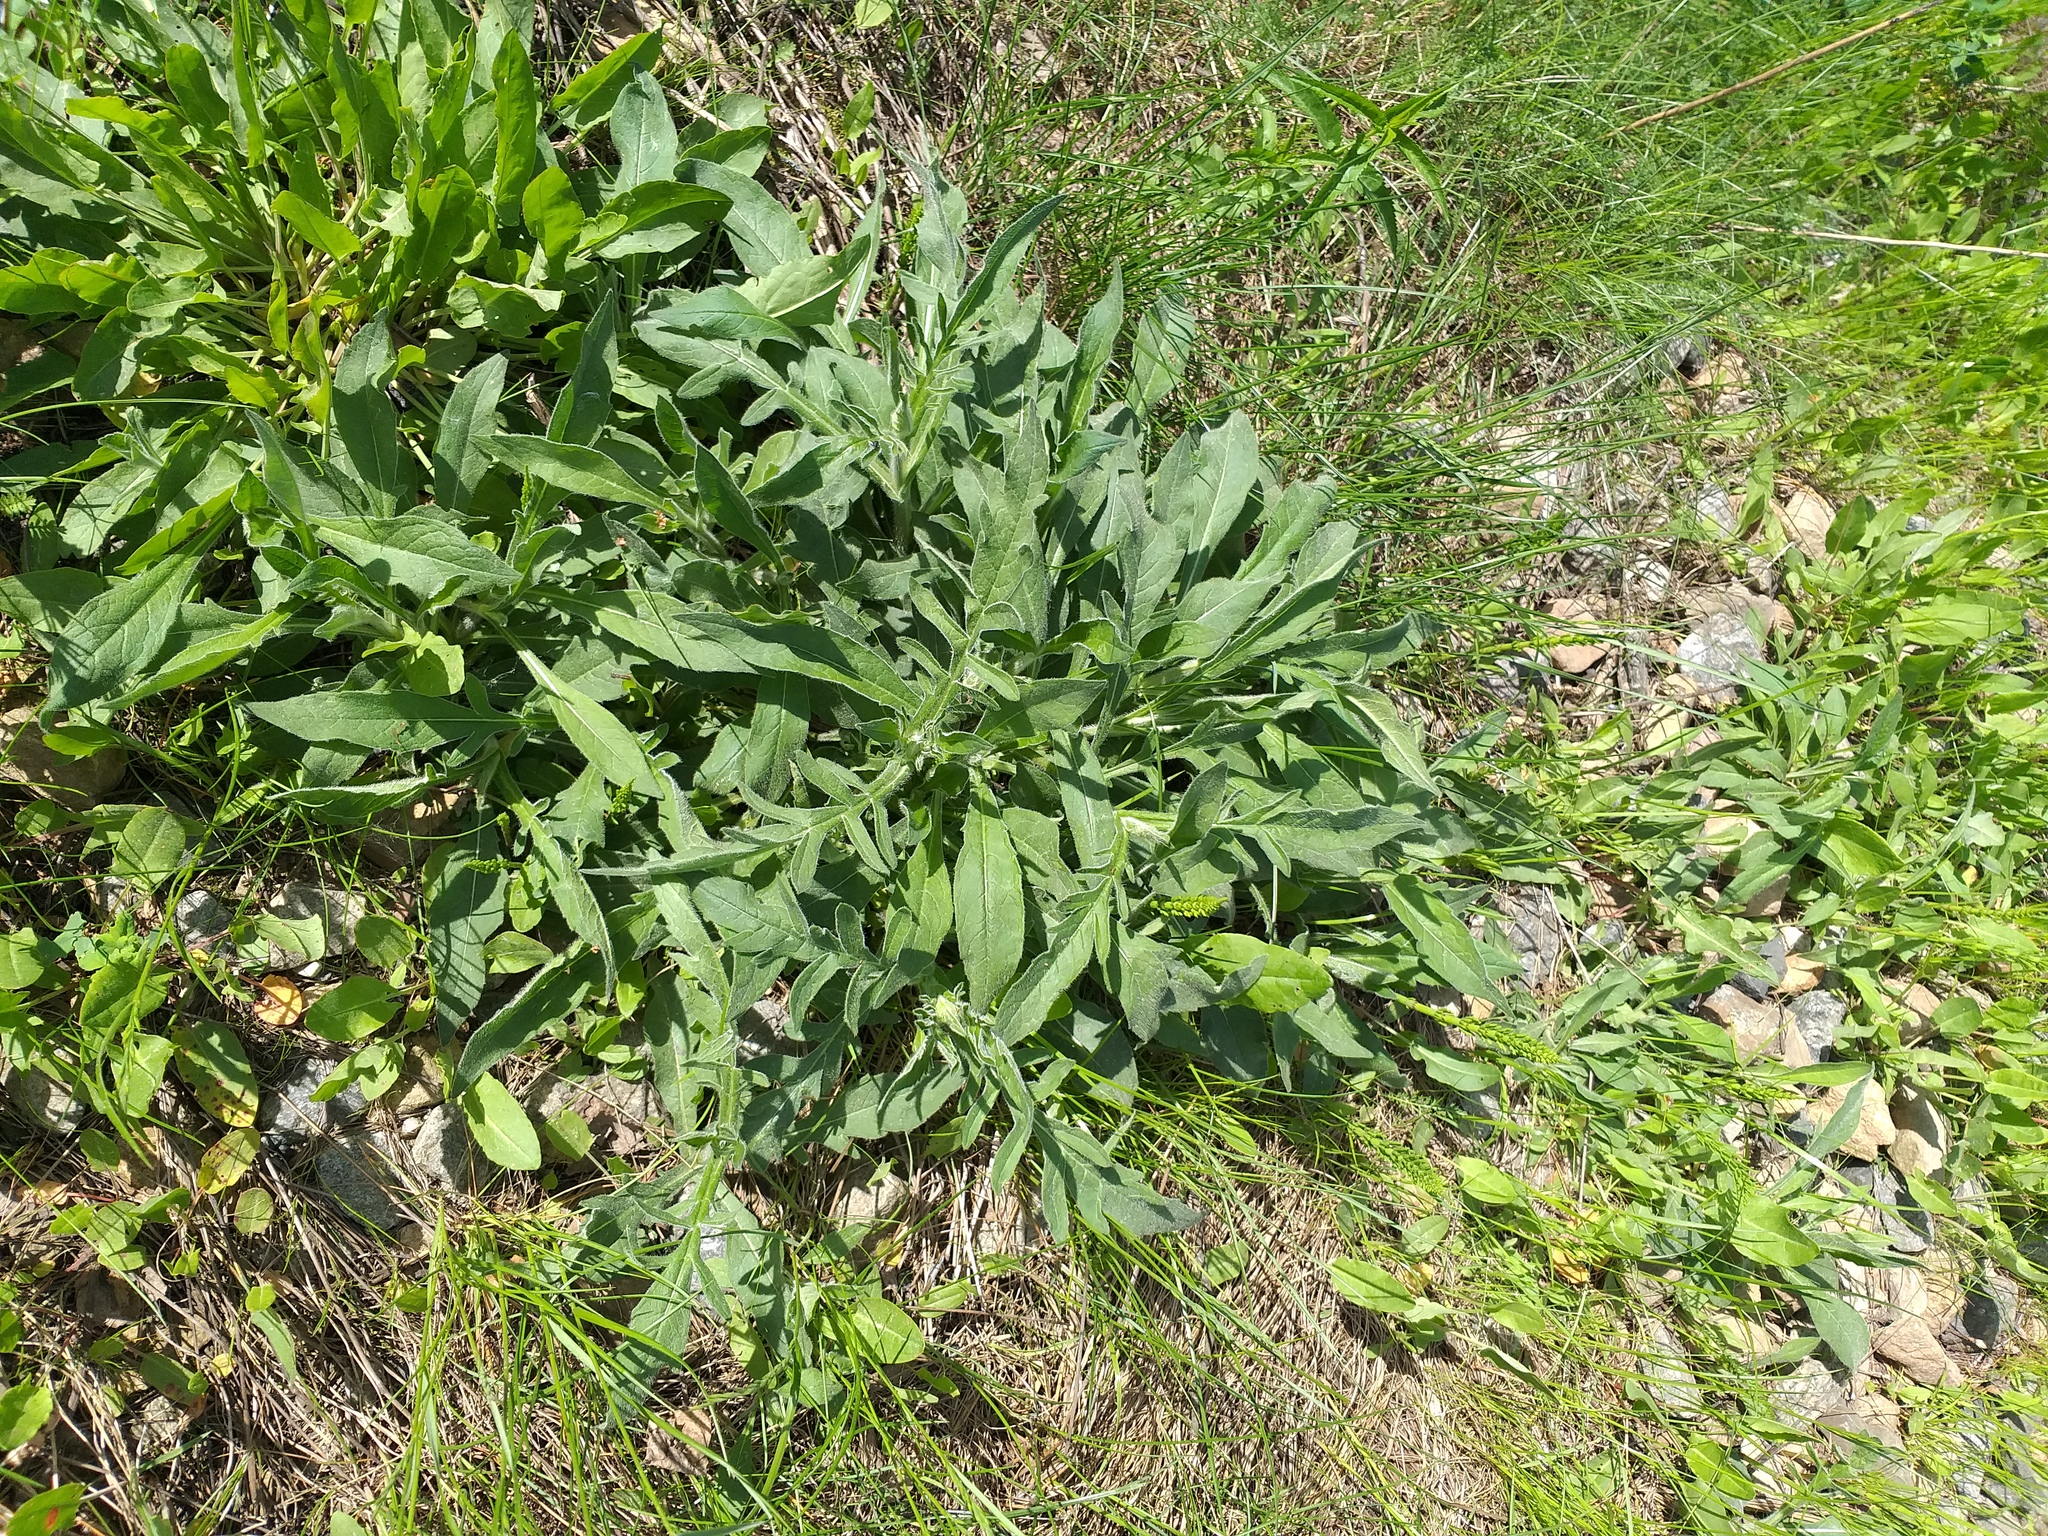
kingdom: Plantae
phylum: Tracheophyta
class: Magnoliopsida
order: Dipsacales
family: Caprifoliaceae
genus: Knautia
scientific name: Knautia arvensis
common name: Field scabiosa
